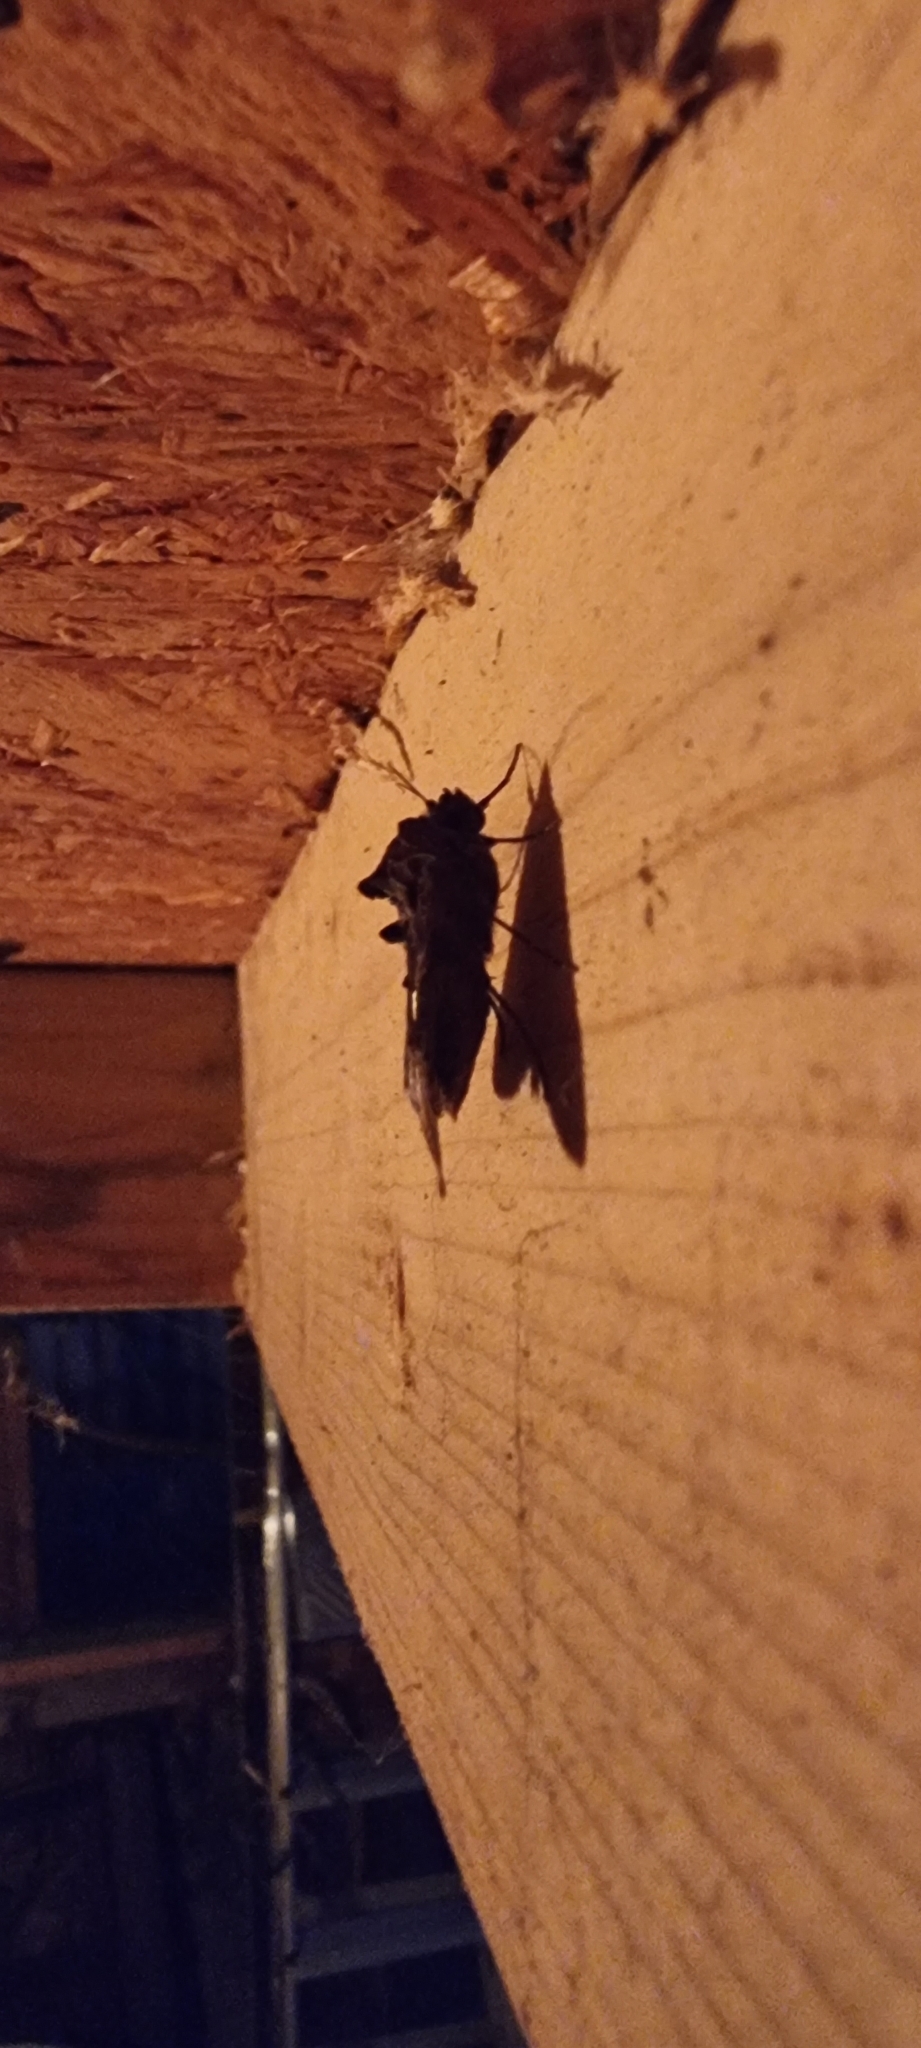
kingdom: Animalia
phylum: Arthropoda
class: Insecta
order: Lepidoptera
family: Noctuidae
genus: Autographa
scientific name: Autographa gamma
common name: Silver y
